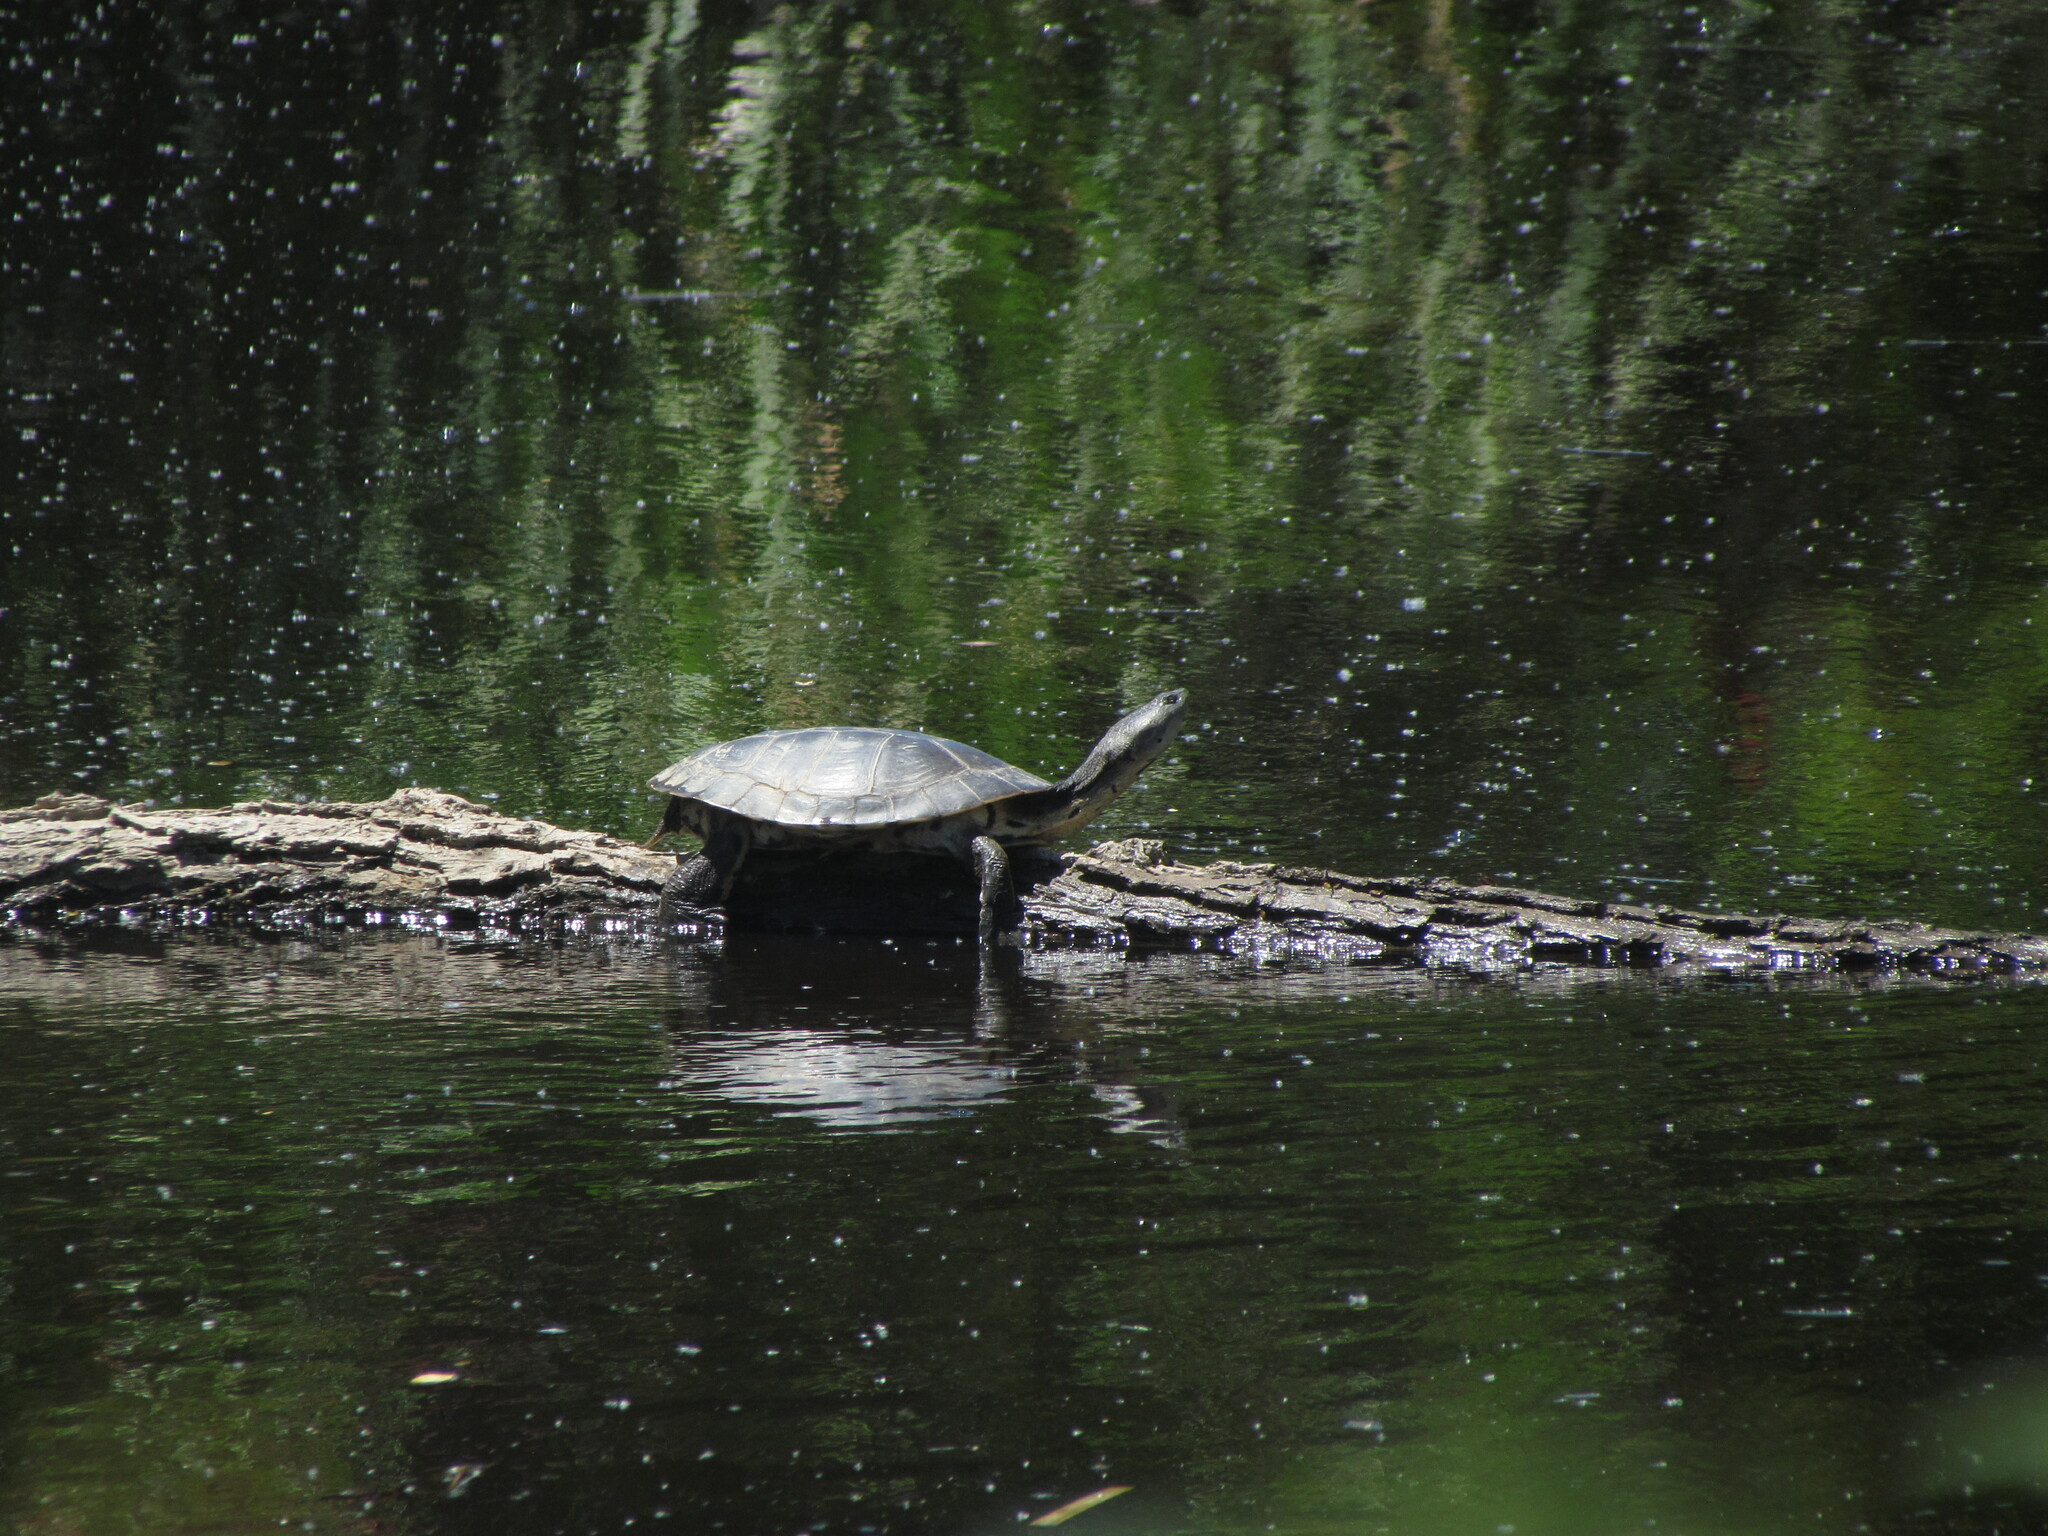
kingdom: Animalia
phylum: Chordata
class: Testudines
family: Chelidae
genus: Phrynops
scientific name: Phrynops hilarii
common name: Side-necked turtle of saint hillaire
